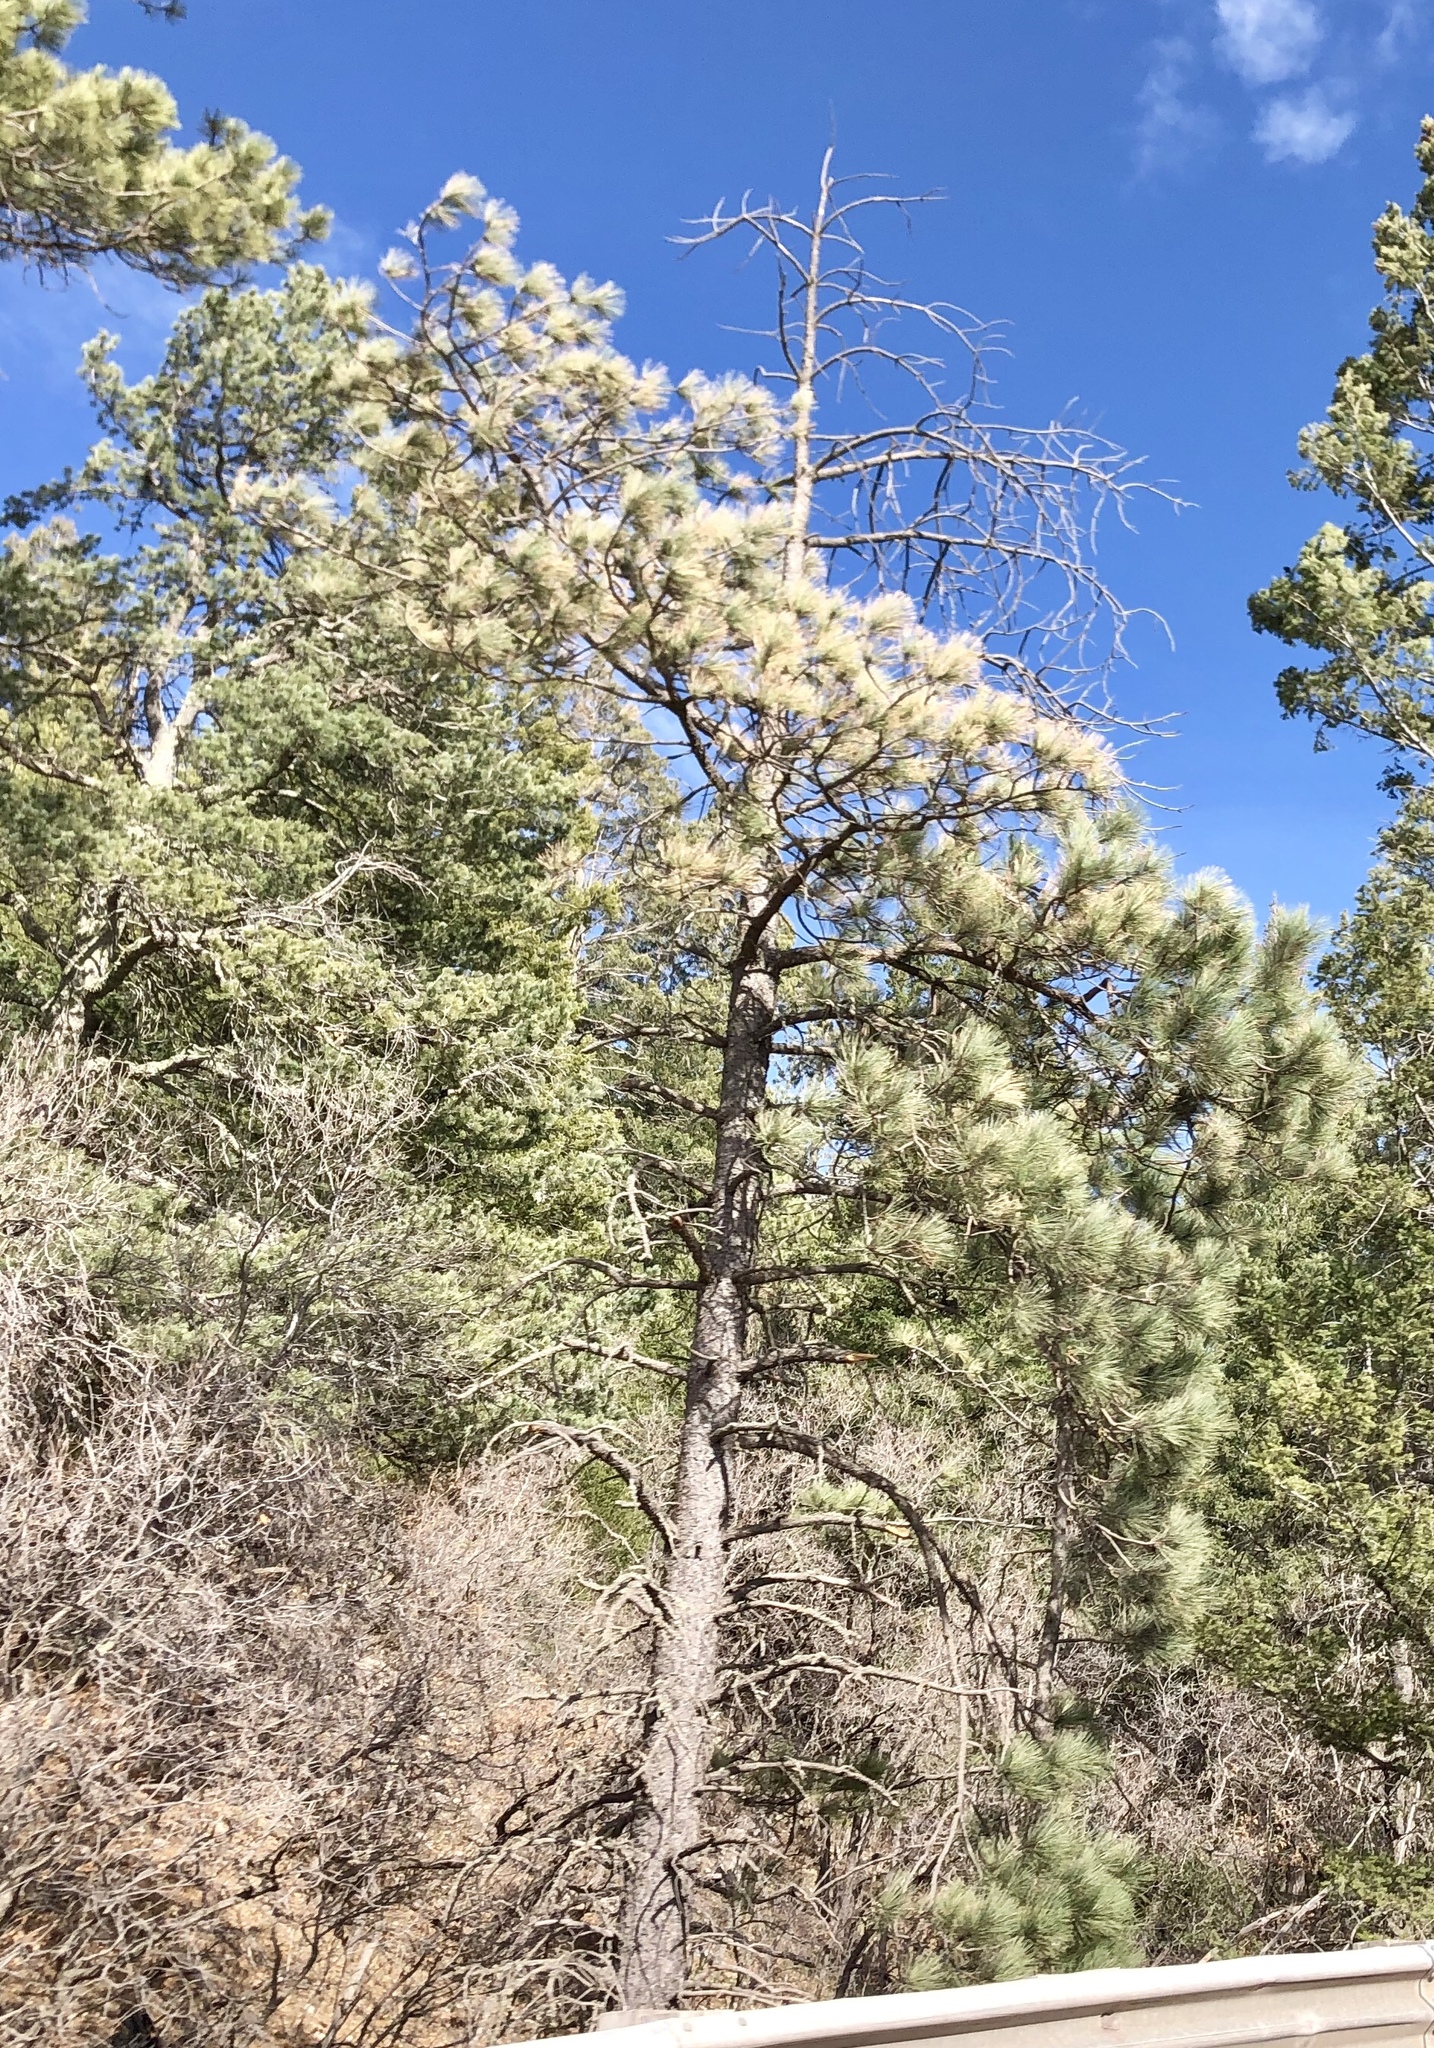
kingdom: Plantae
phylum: Tracheophyta
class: Pinopsida
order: Pinales
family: Pinaceae
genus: Pinus
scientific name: Pinus ponderosa
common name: Western yellow-pine
